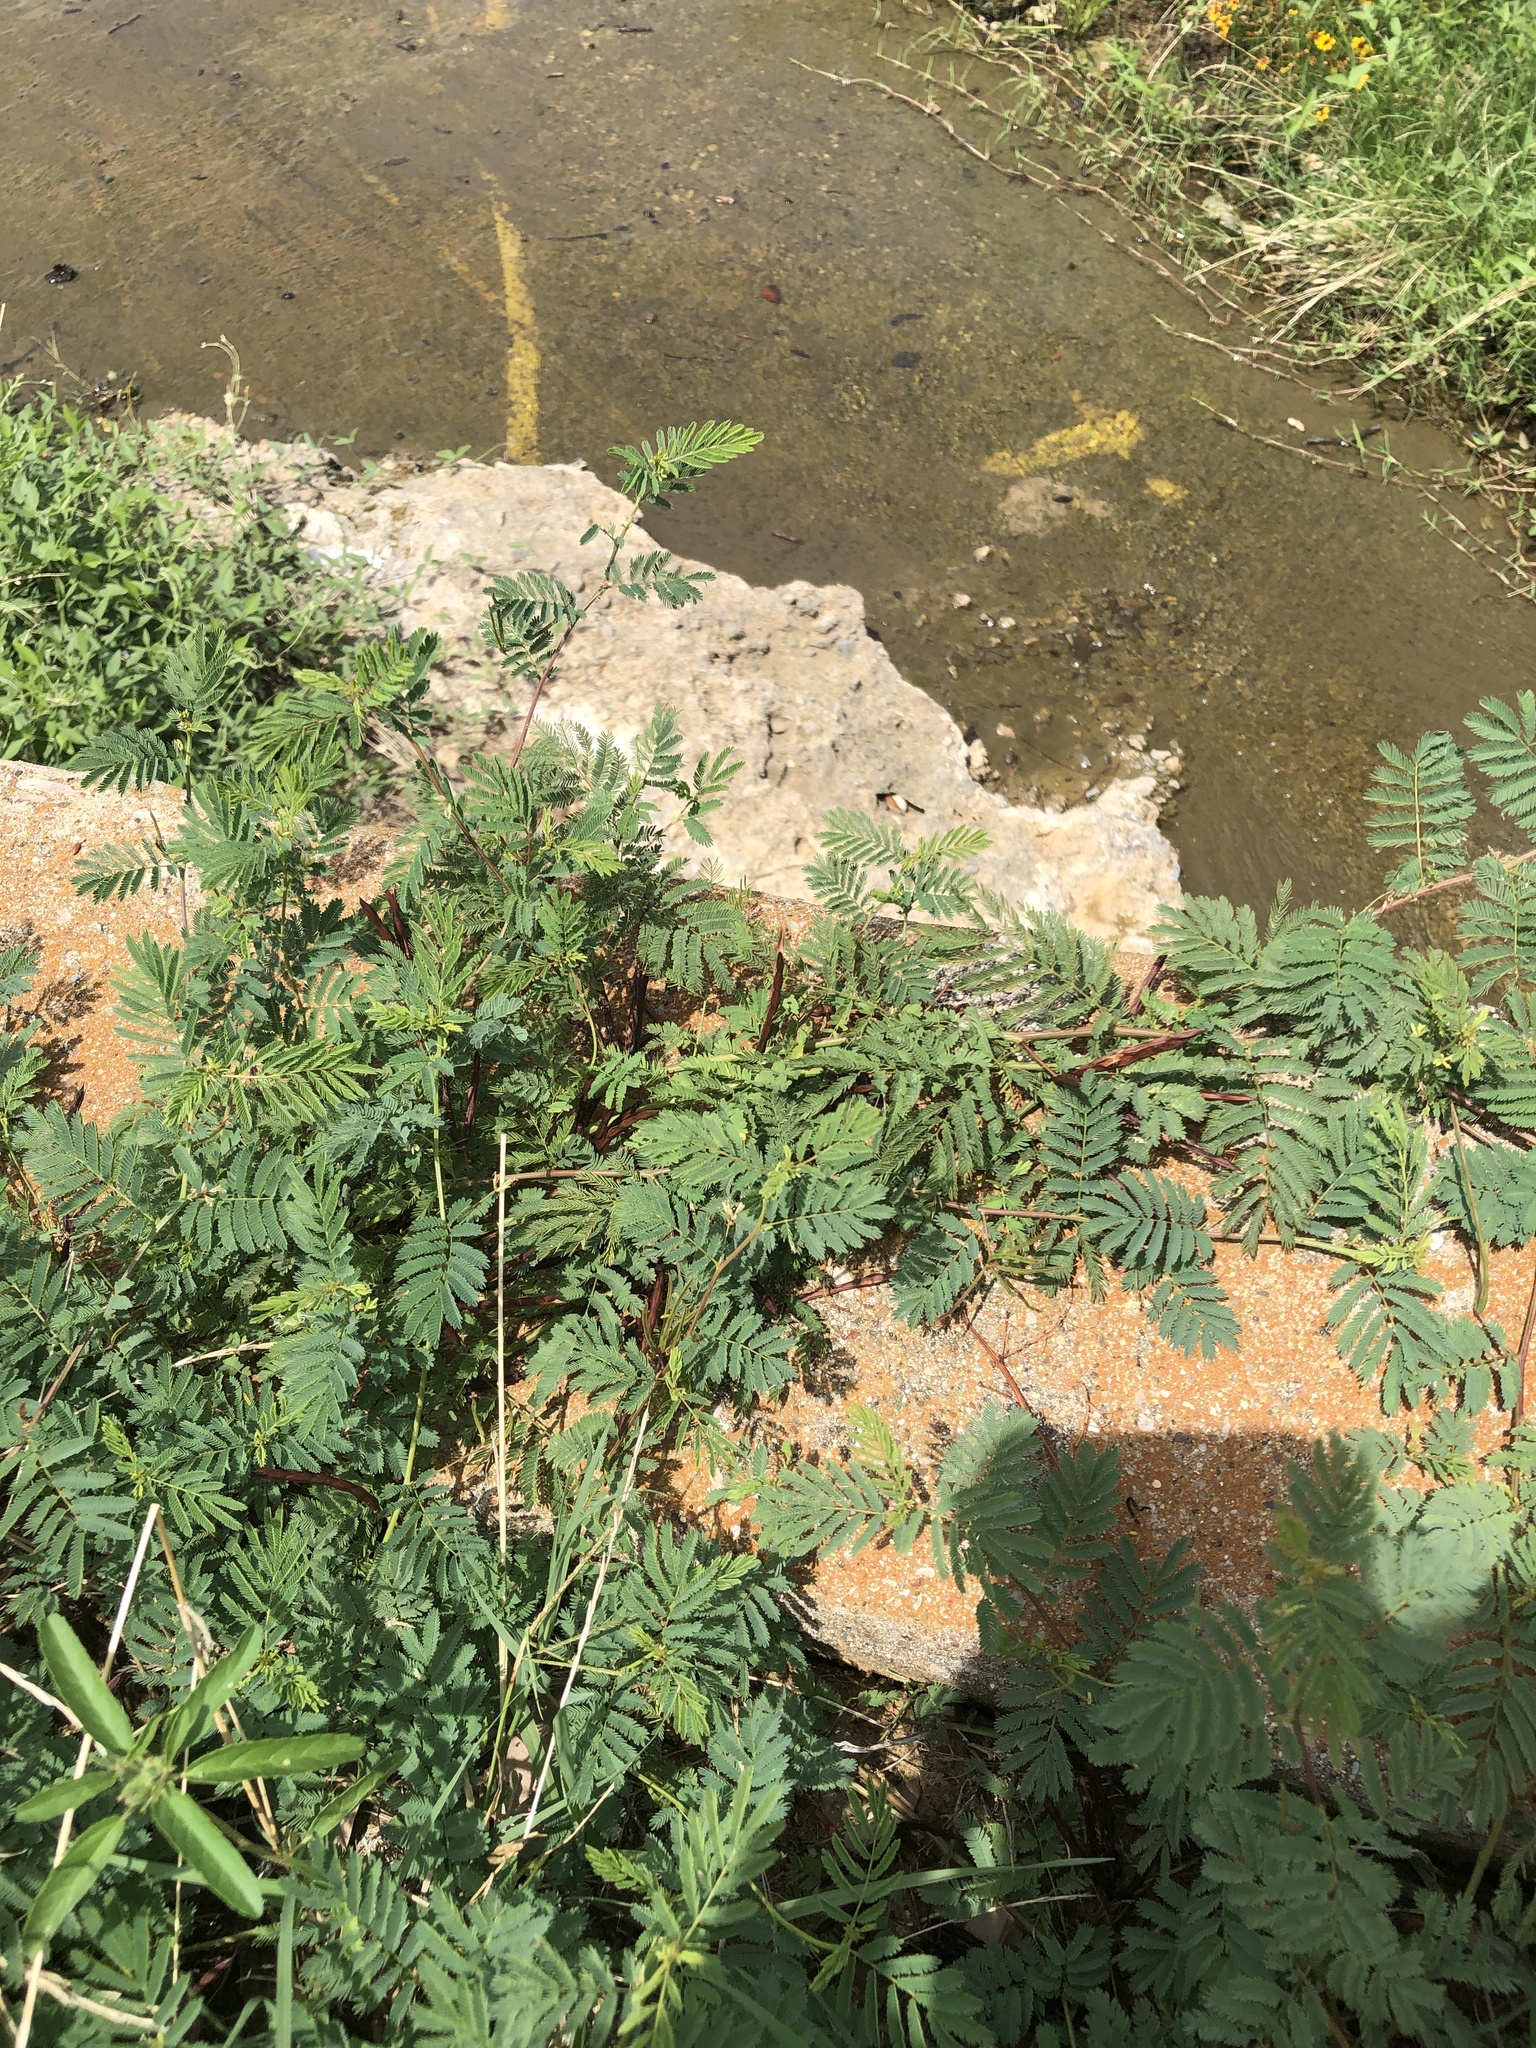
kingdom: Plantae
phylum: Tracheophyta
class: Magnoliopsida
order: Fabales
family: Fabaceae
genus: Desmanthus
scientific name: Desmanthus leptolobus
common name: Prairie-mimosa
